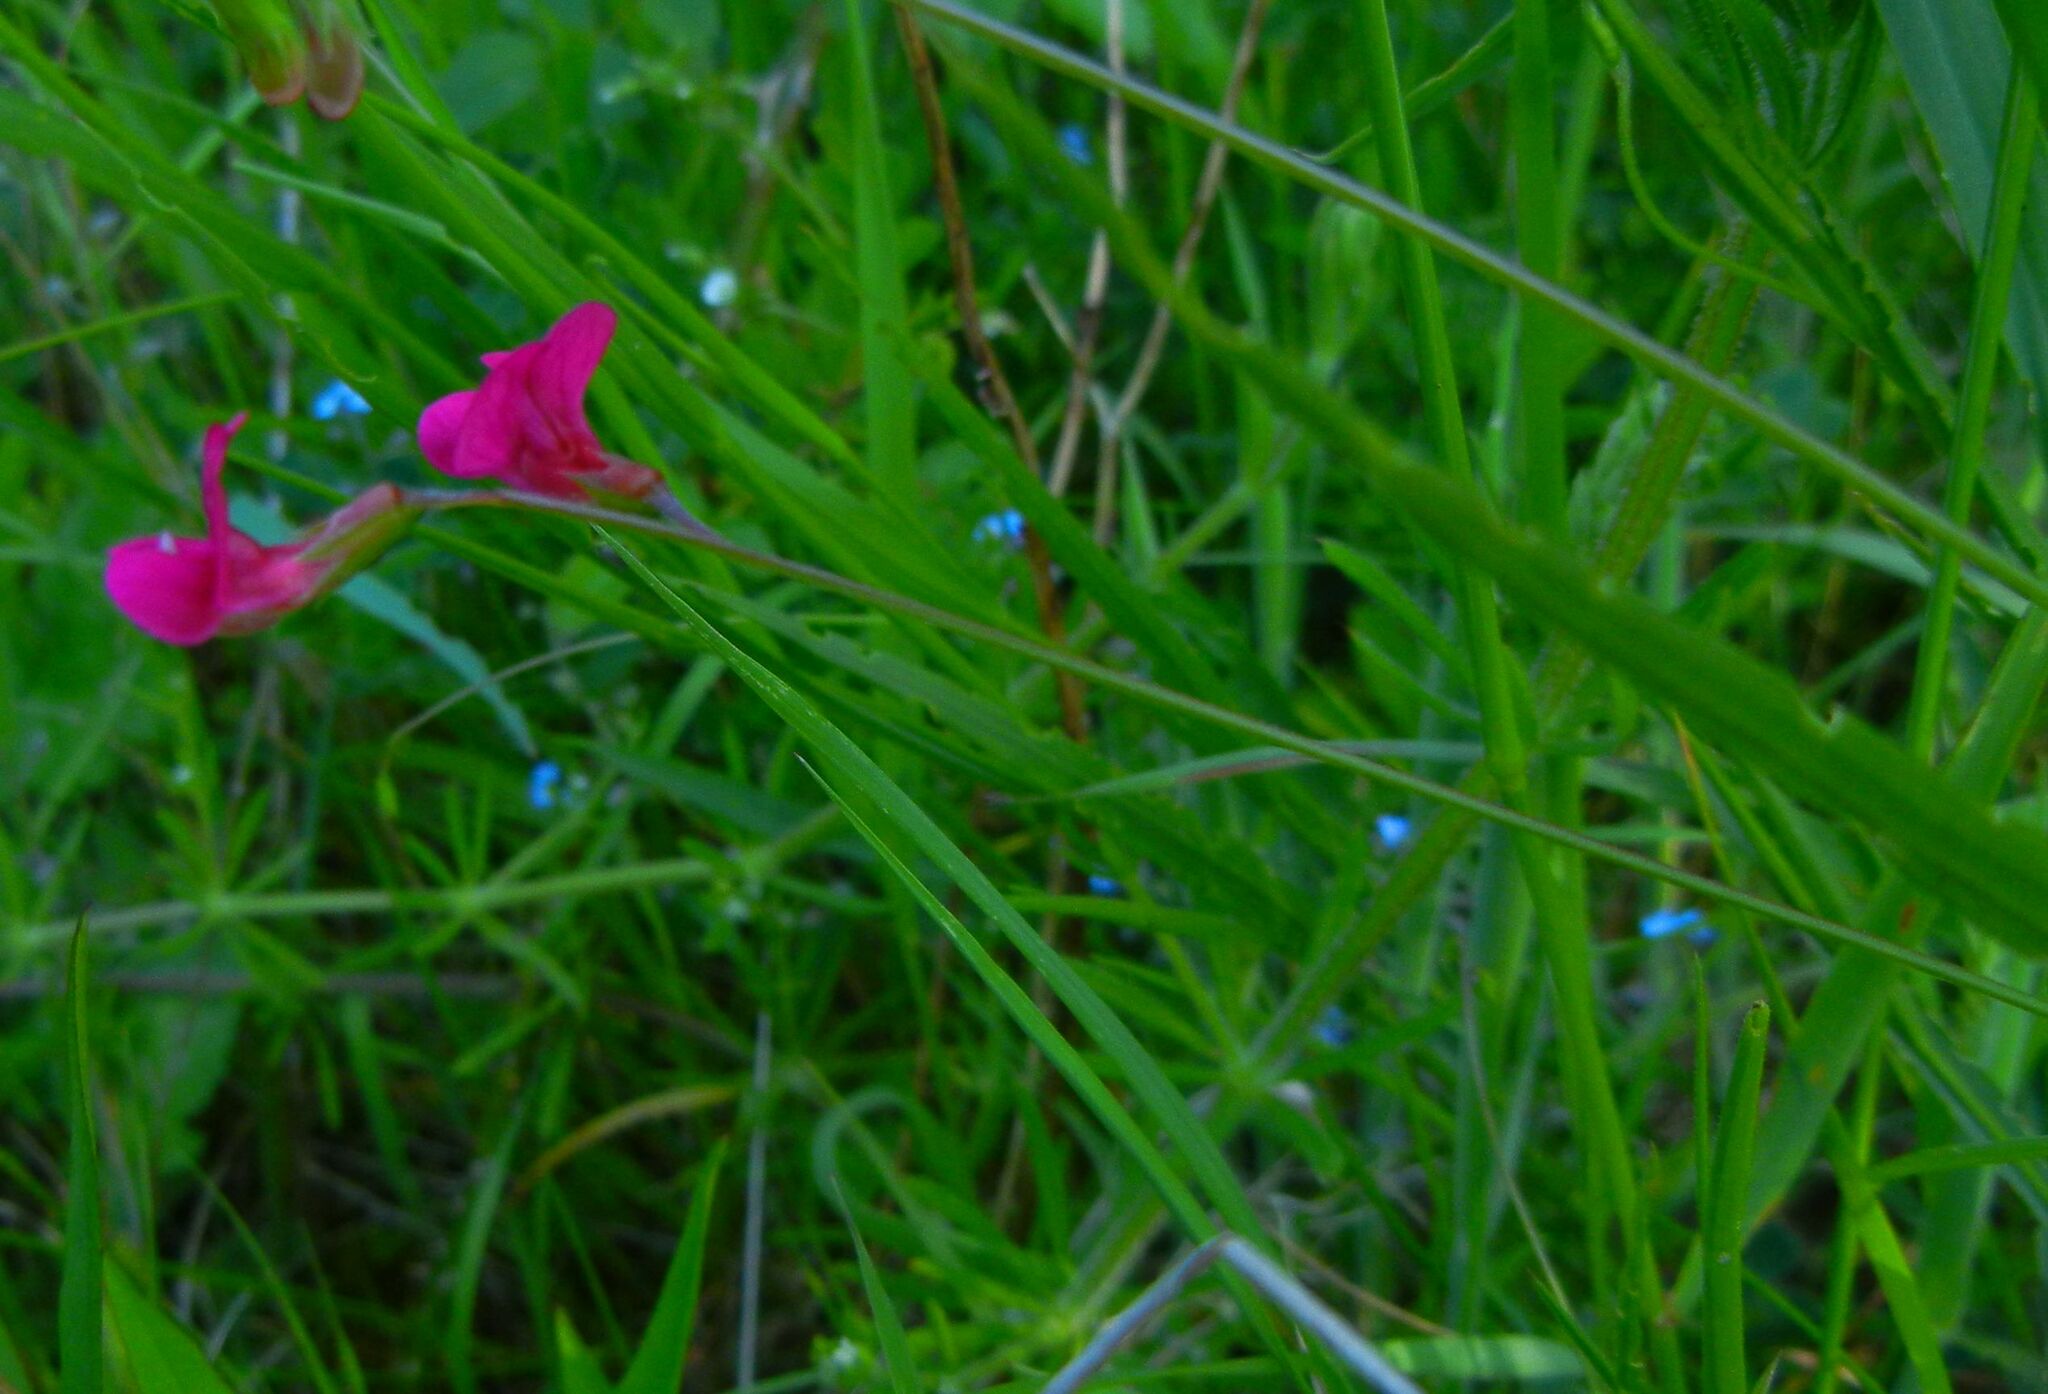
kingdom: Plantae
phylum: Tracheophyta
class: Magnoliopsida
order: Fabales
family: Fabaceae
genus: Lathyrus
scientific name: Lathyrus nissolia
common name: Grass vetchling
